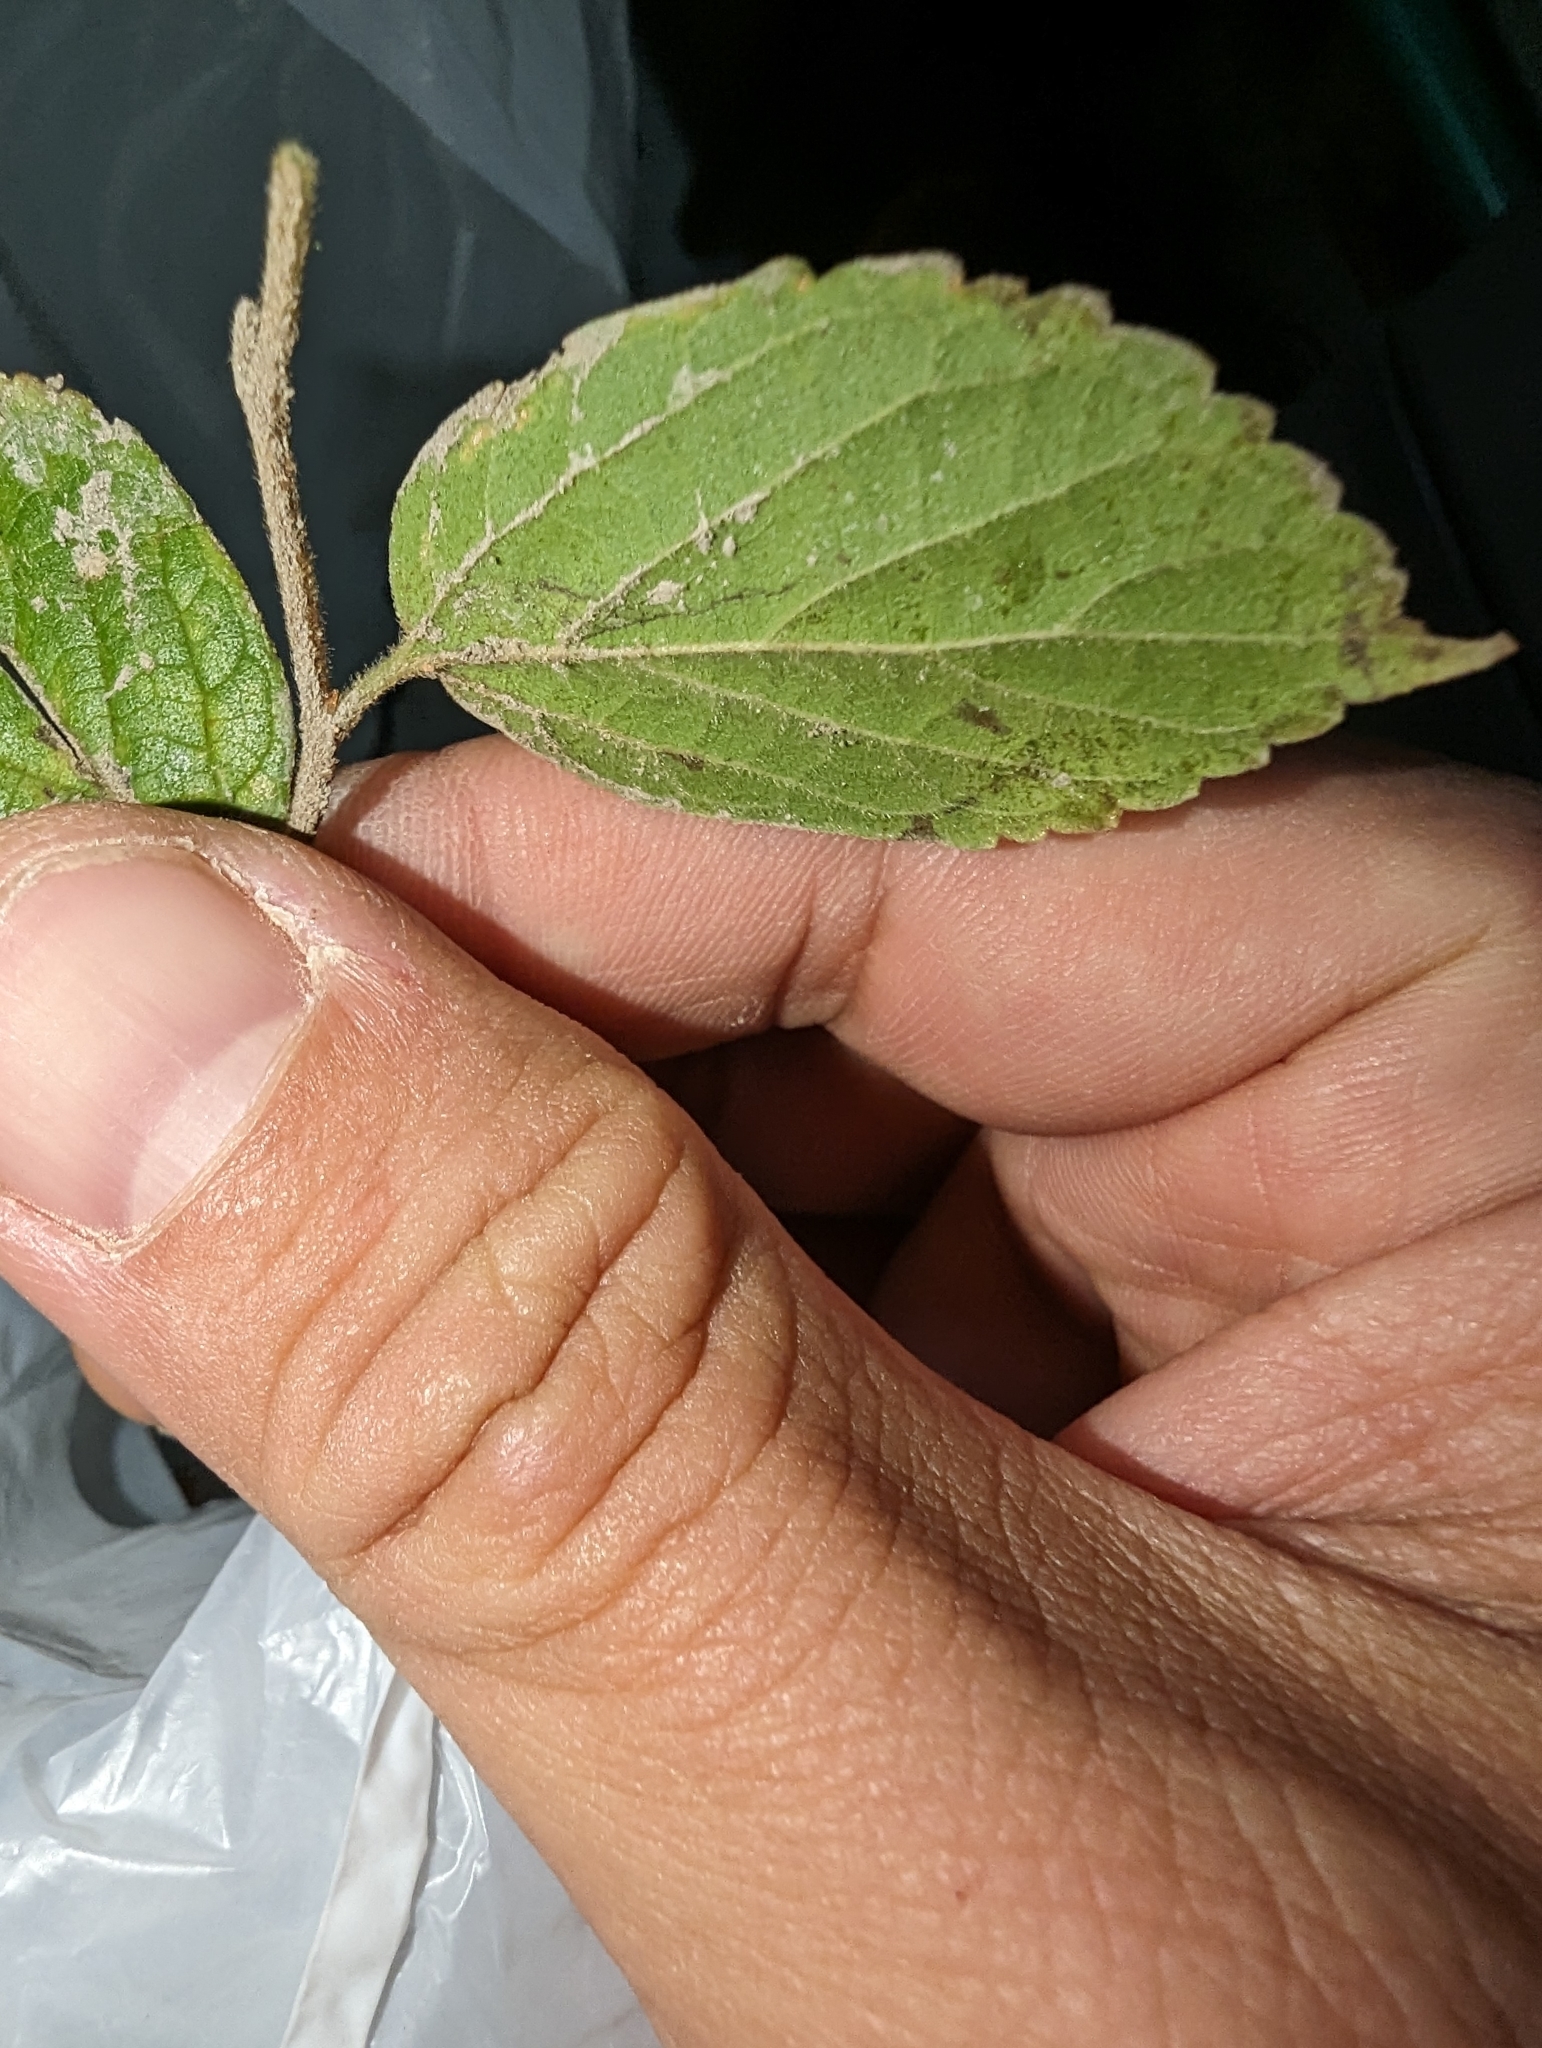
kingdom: Plantae
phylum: Tracheophyta
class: Magnoliopsida
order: Rosales
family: Cannabaceae
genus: Celtis
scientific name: Celtis sinensis
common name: Chinese hackberry
